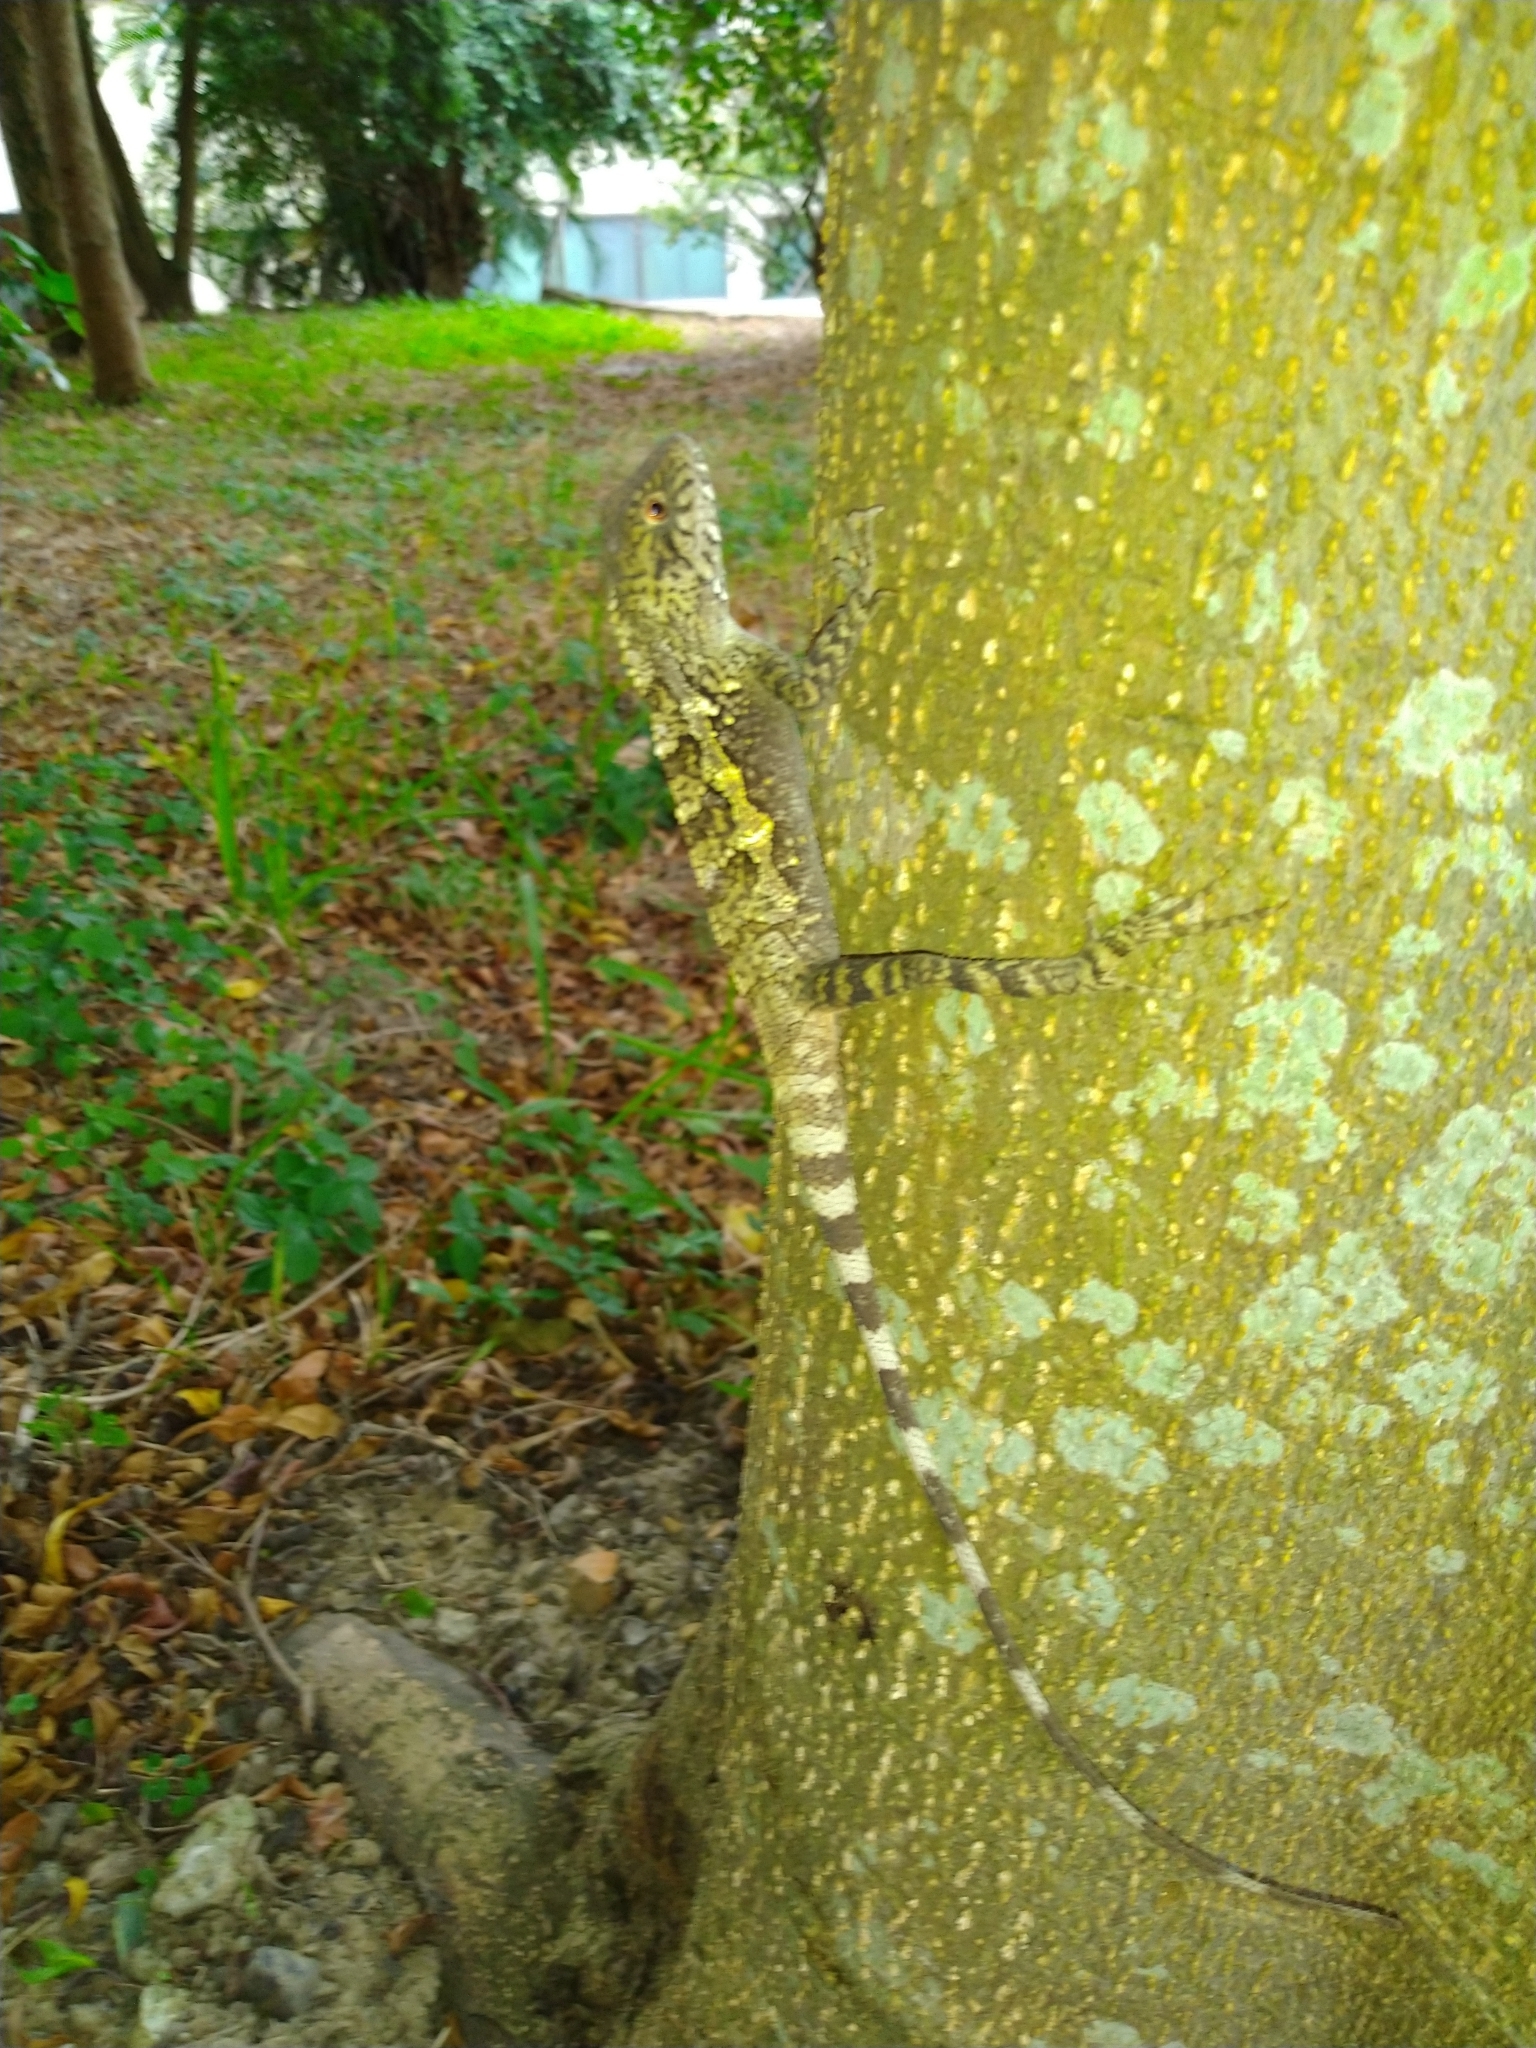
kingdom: Animalia
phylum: Chordata
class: Squamata
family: Agamidae
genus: Diploderma
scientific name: Diploderma swinhonis
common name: Taiwan japalure
